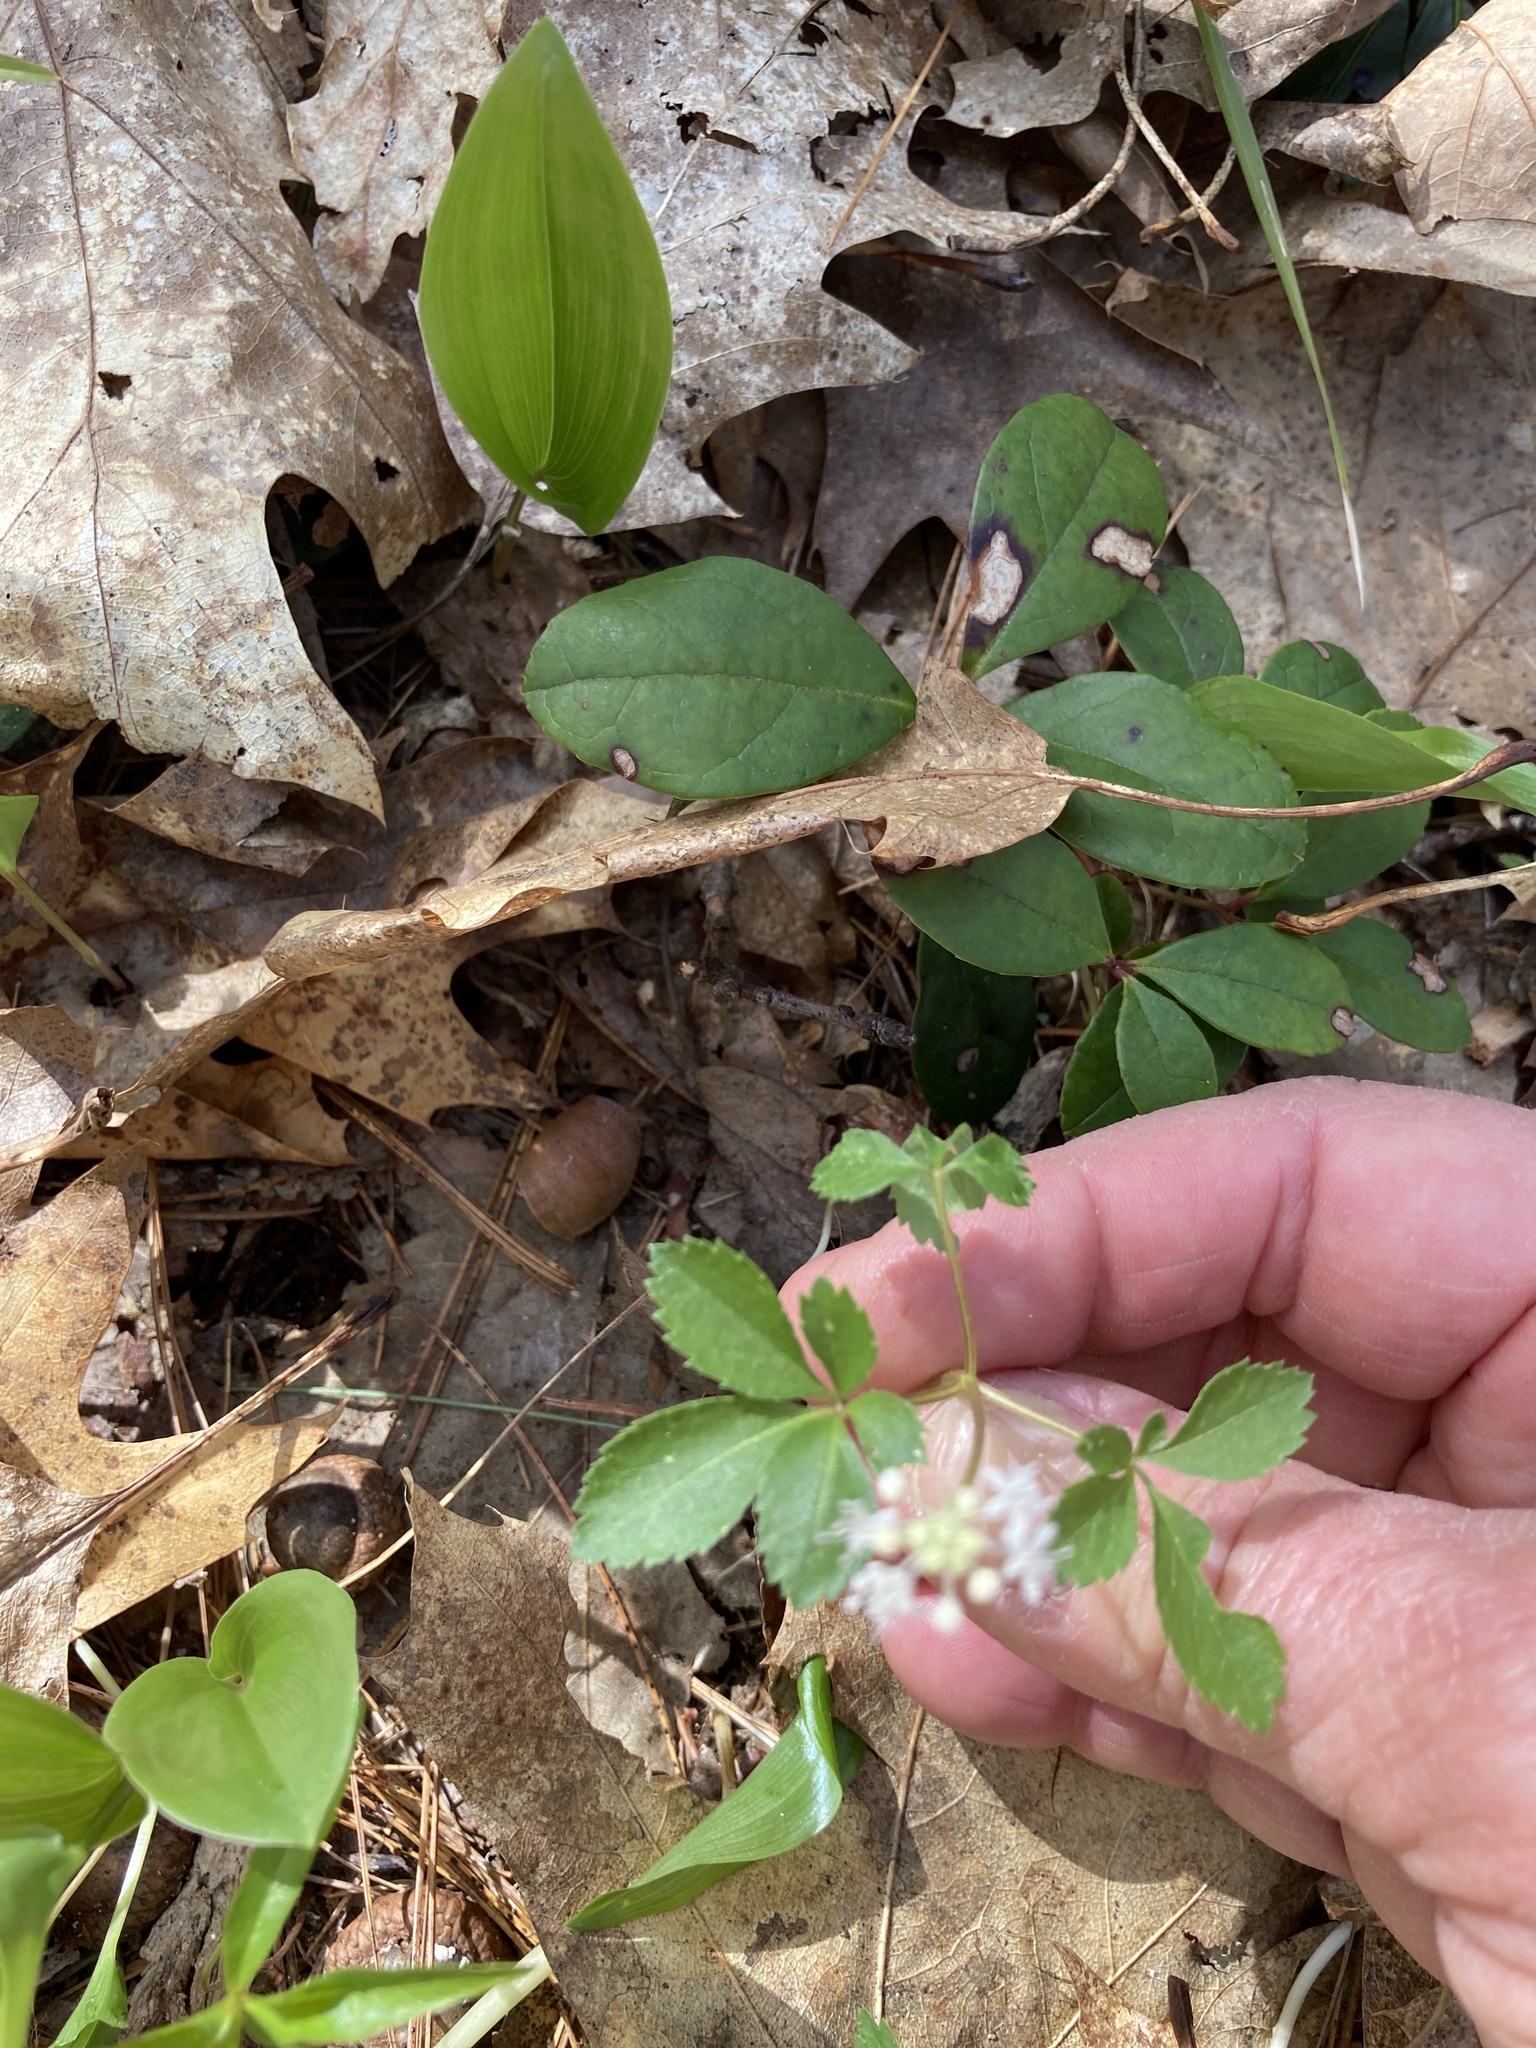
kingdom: Plantae
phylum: Tracheophyta
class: Magnoliopsida
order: Apiales
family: Araliaceae
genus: Panax
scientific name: Panax trifolius
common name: Dwarf ginseng
